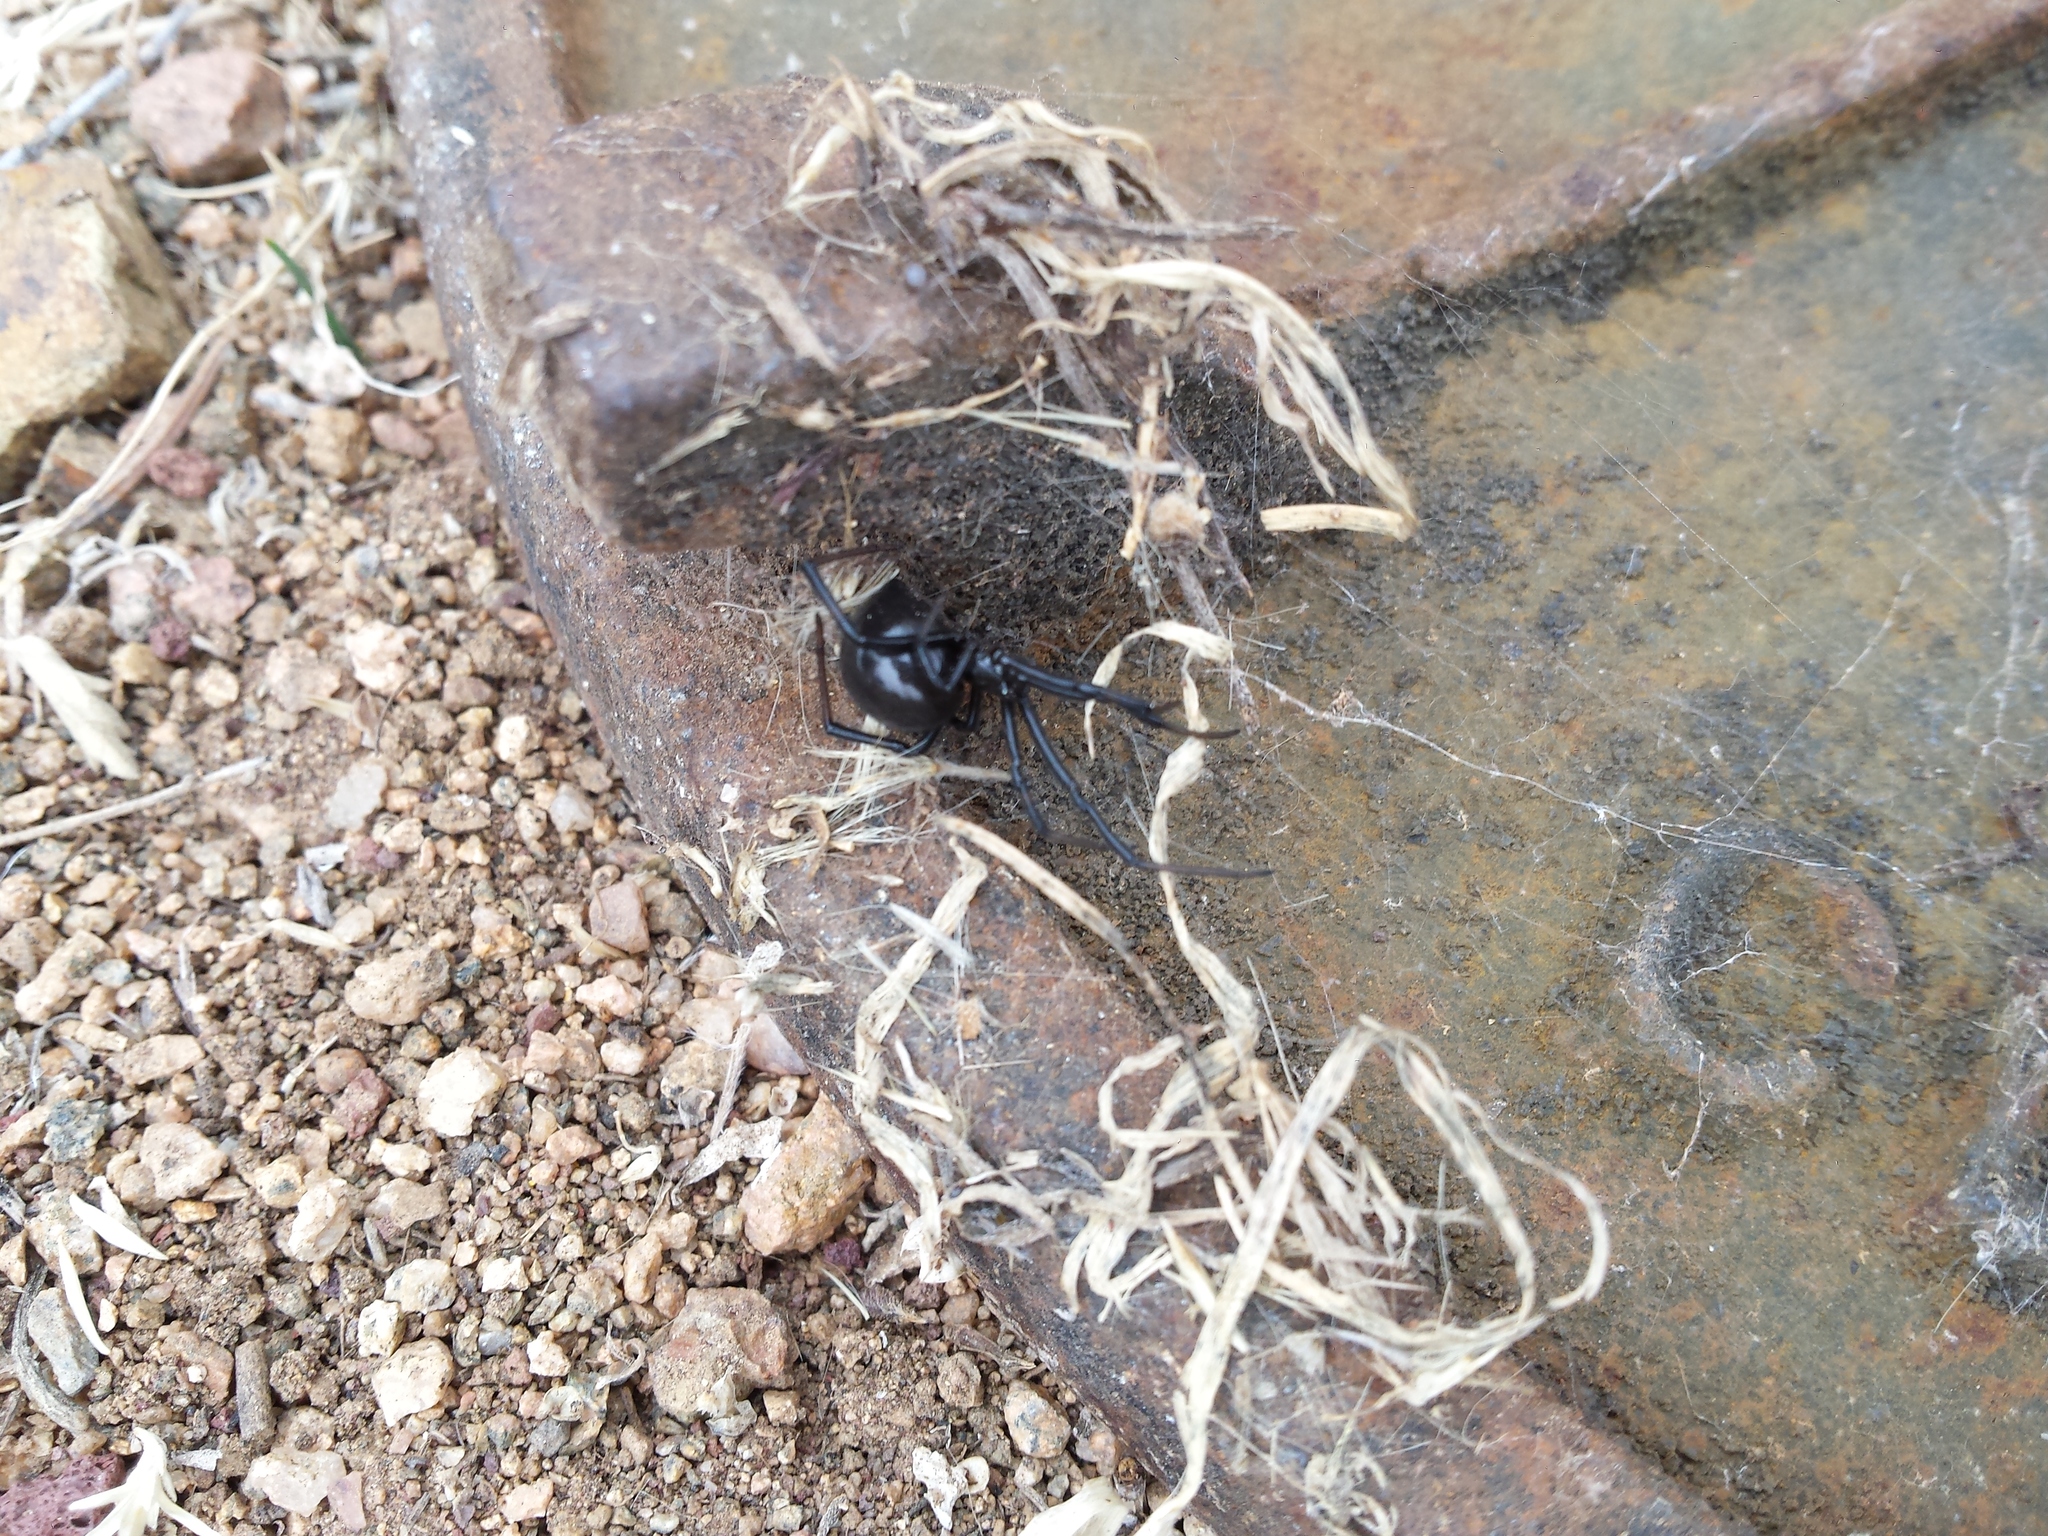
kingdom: Animalia
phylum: Arthropoda
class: Arachnida
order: Araneae
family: Theridiidae
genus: Latrodectus
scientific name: Latrodectus hesperus
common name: Western black widow
